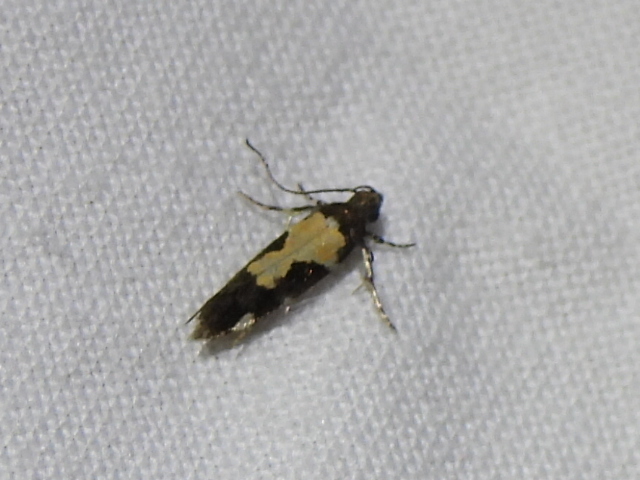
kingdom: Animalia
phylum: Arthropoda
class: Insecta
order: Lepidoptera
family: Gelechiidae
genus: Stegasta
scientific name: Stegasta bosqueella
